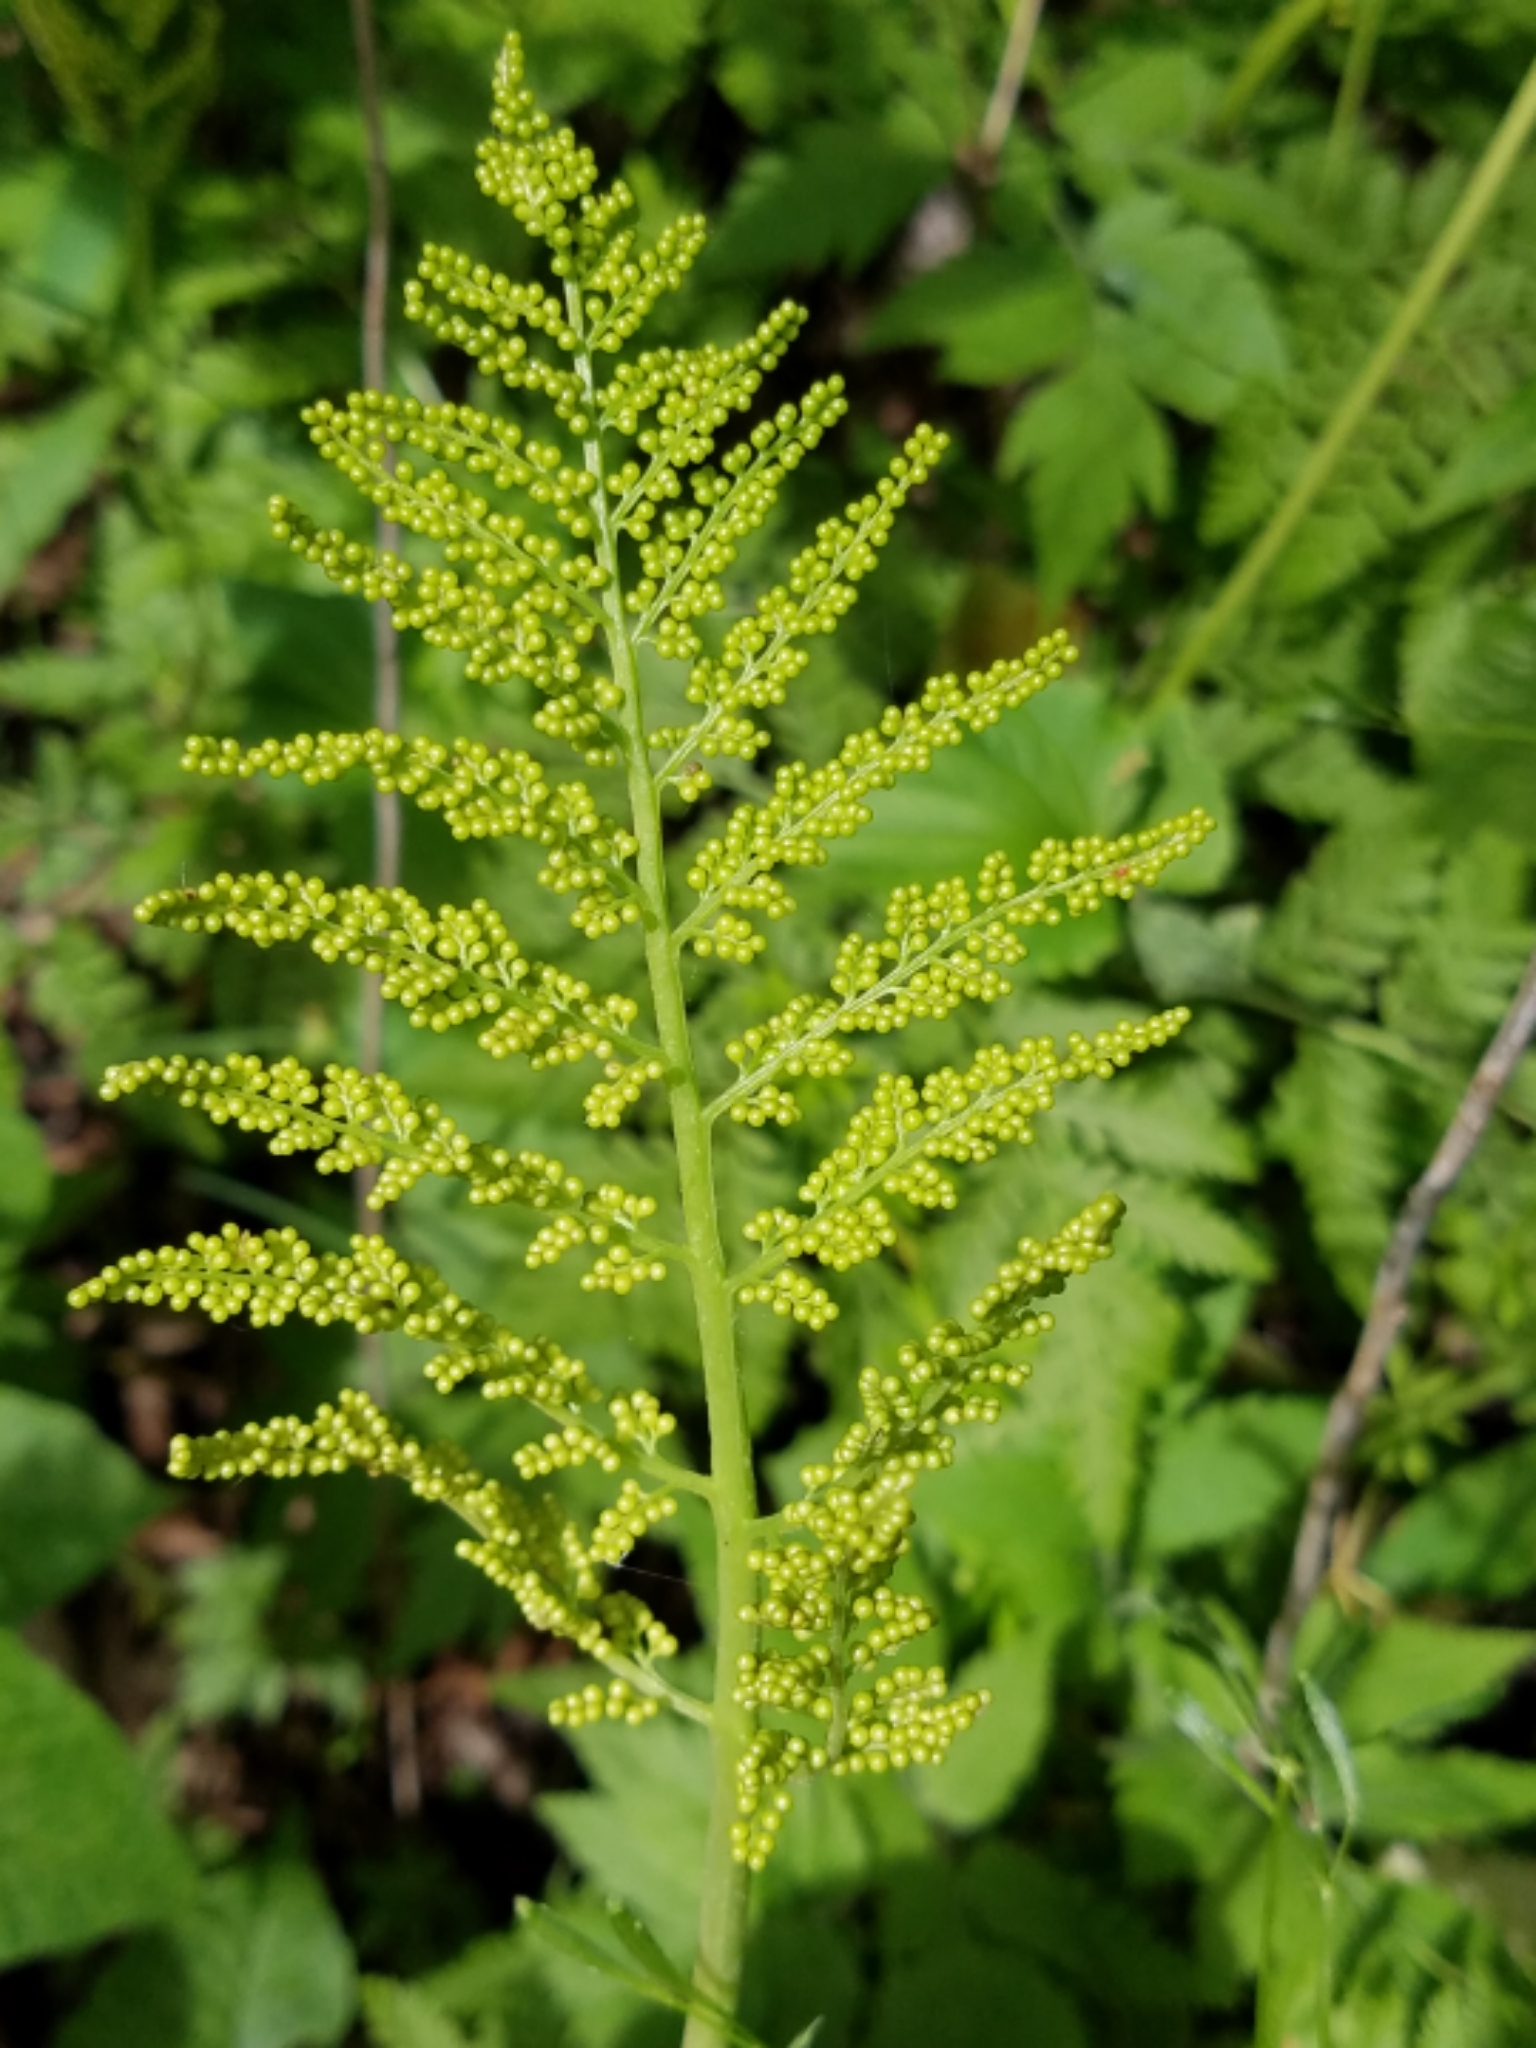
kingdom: Plantae
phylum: Tracheophyta
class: Polypodiopsida
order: Ophioglossales
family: Ophioglossaceae
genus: Botrypus
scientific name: Botrypus virginianus
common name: Common grapefern
